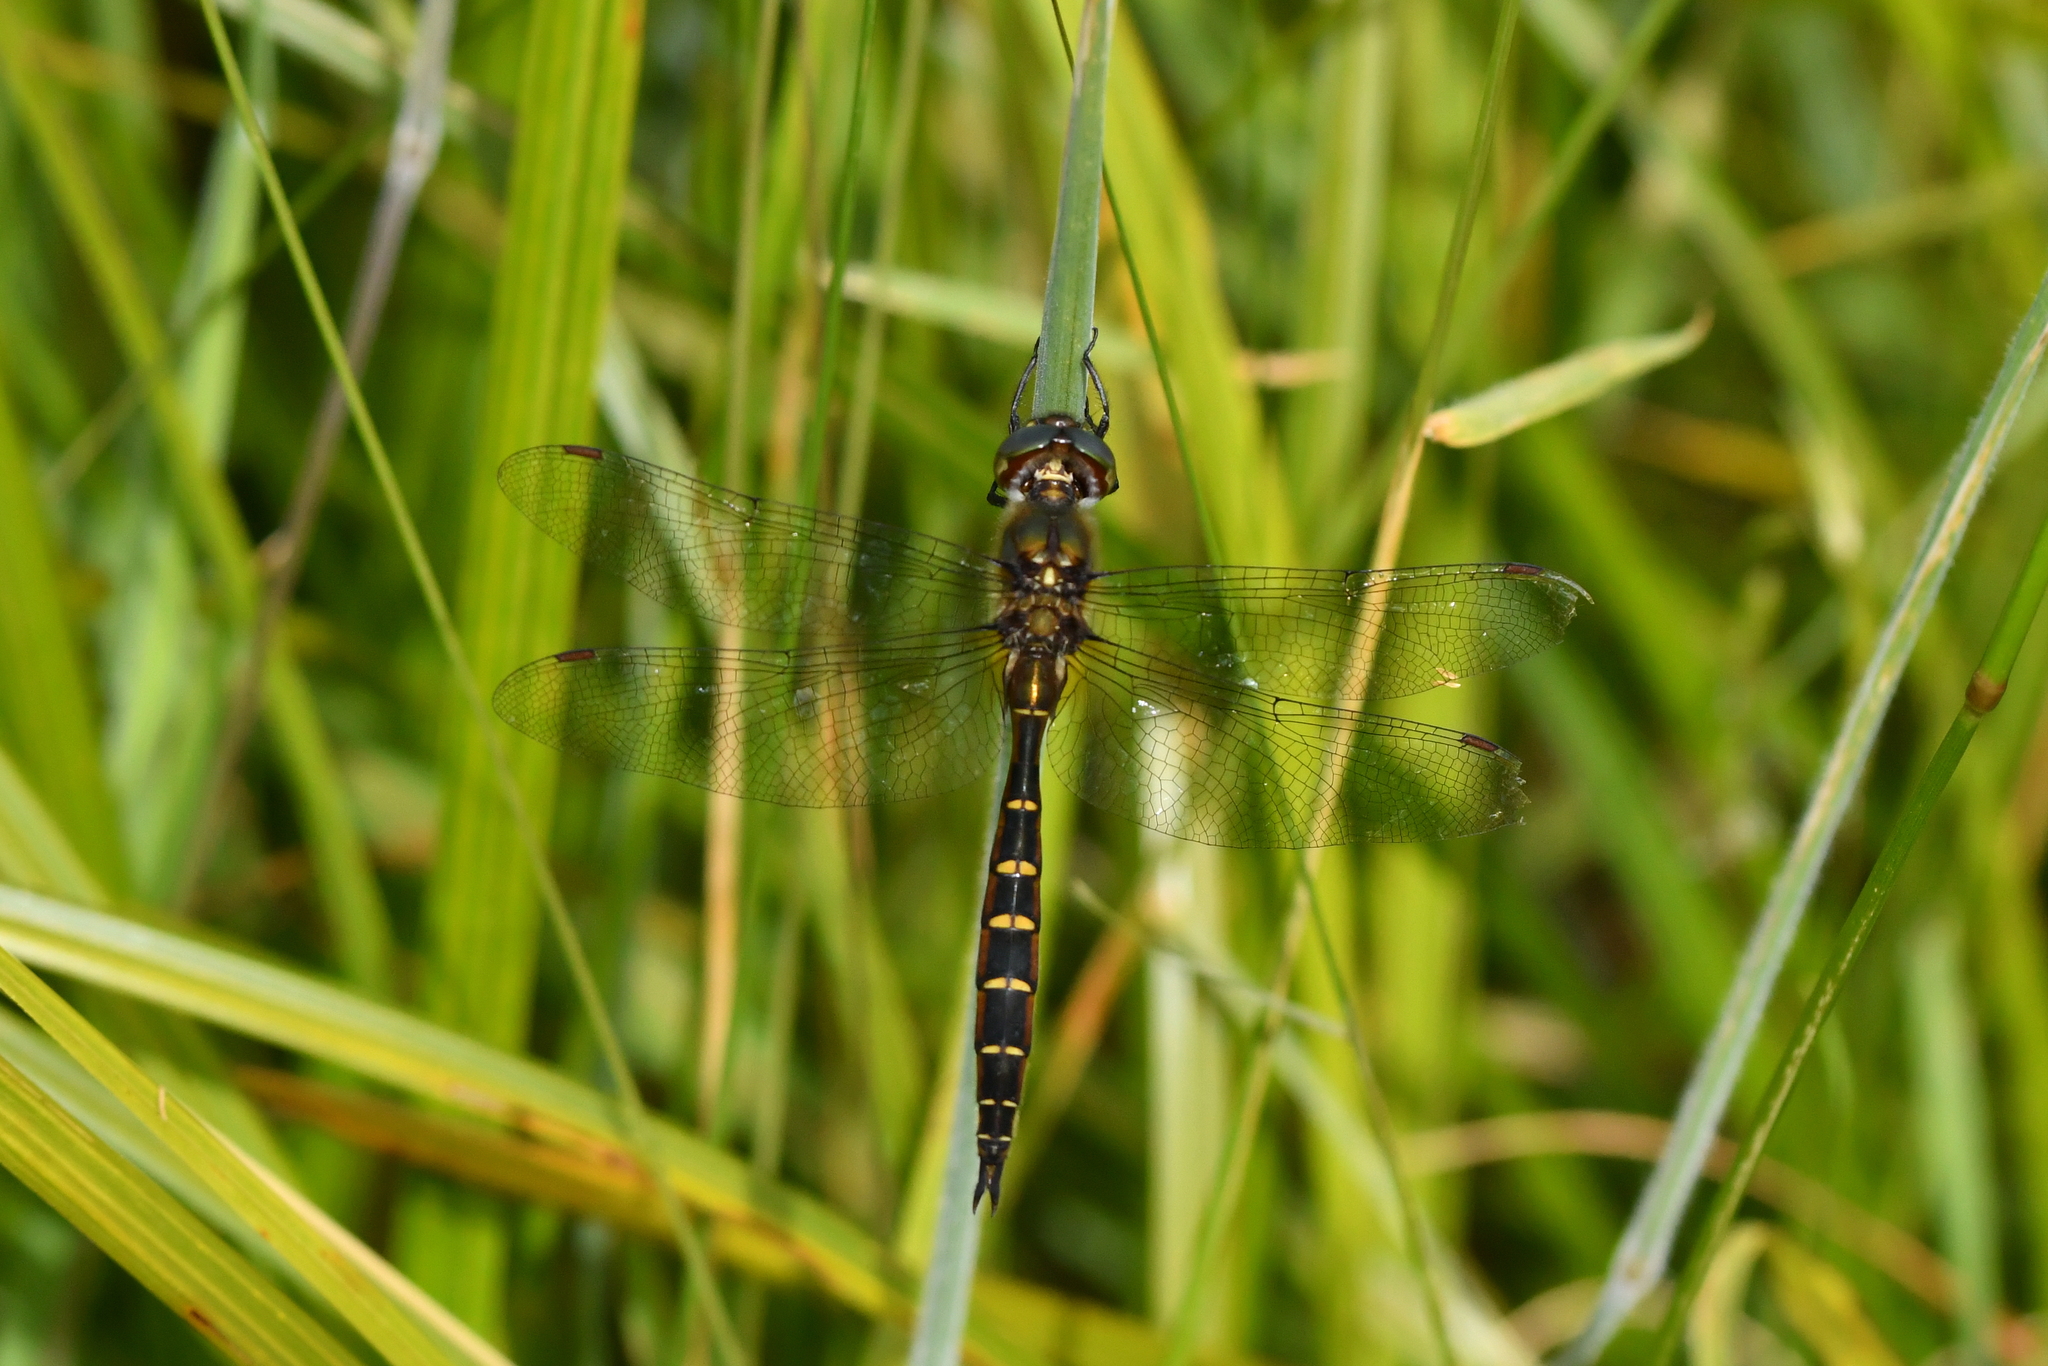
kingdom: Animalia
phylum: Arthropoda
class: Insecta
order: Odonata
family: Corduliidae
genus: Procordulia
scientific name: Procordulia smithii
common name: Ranger dragonfly
